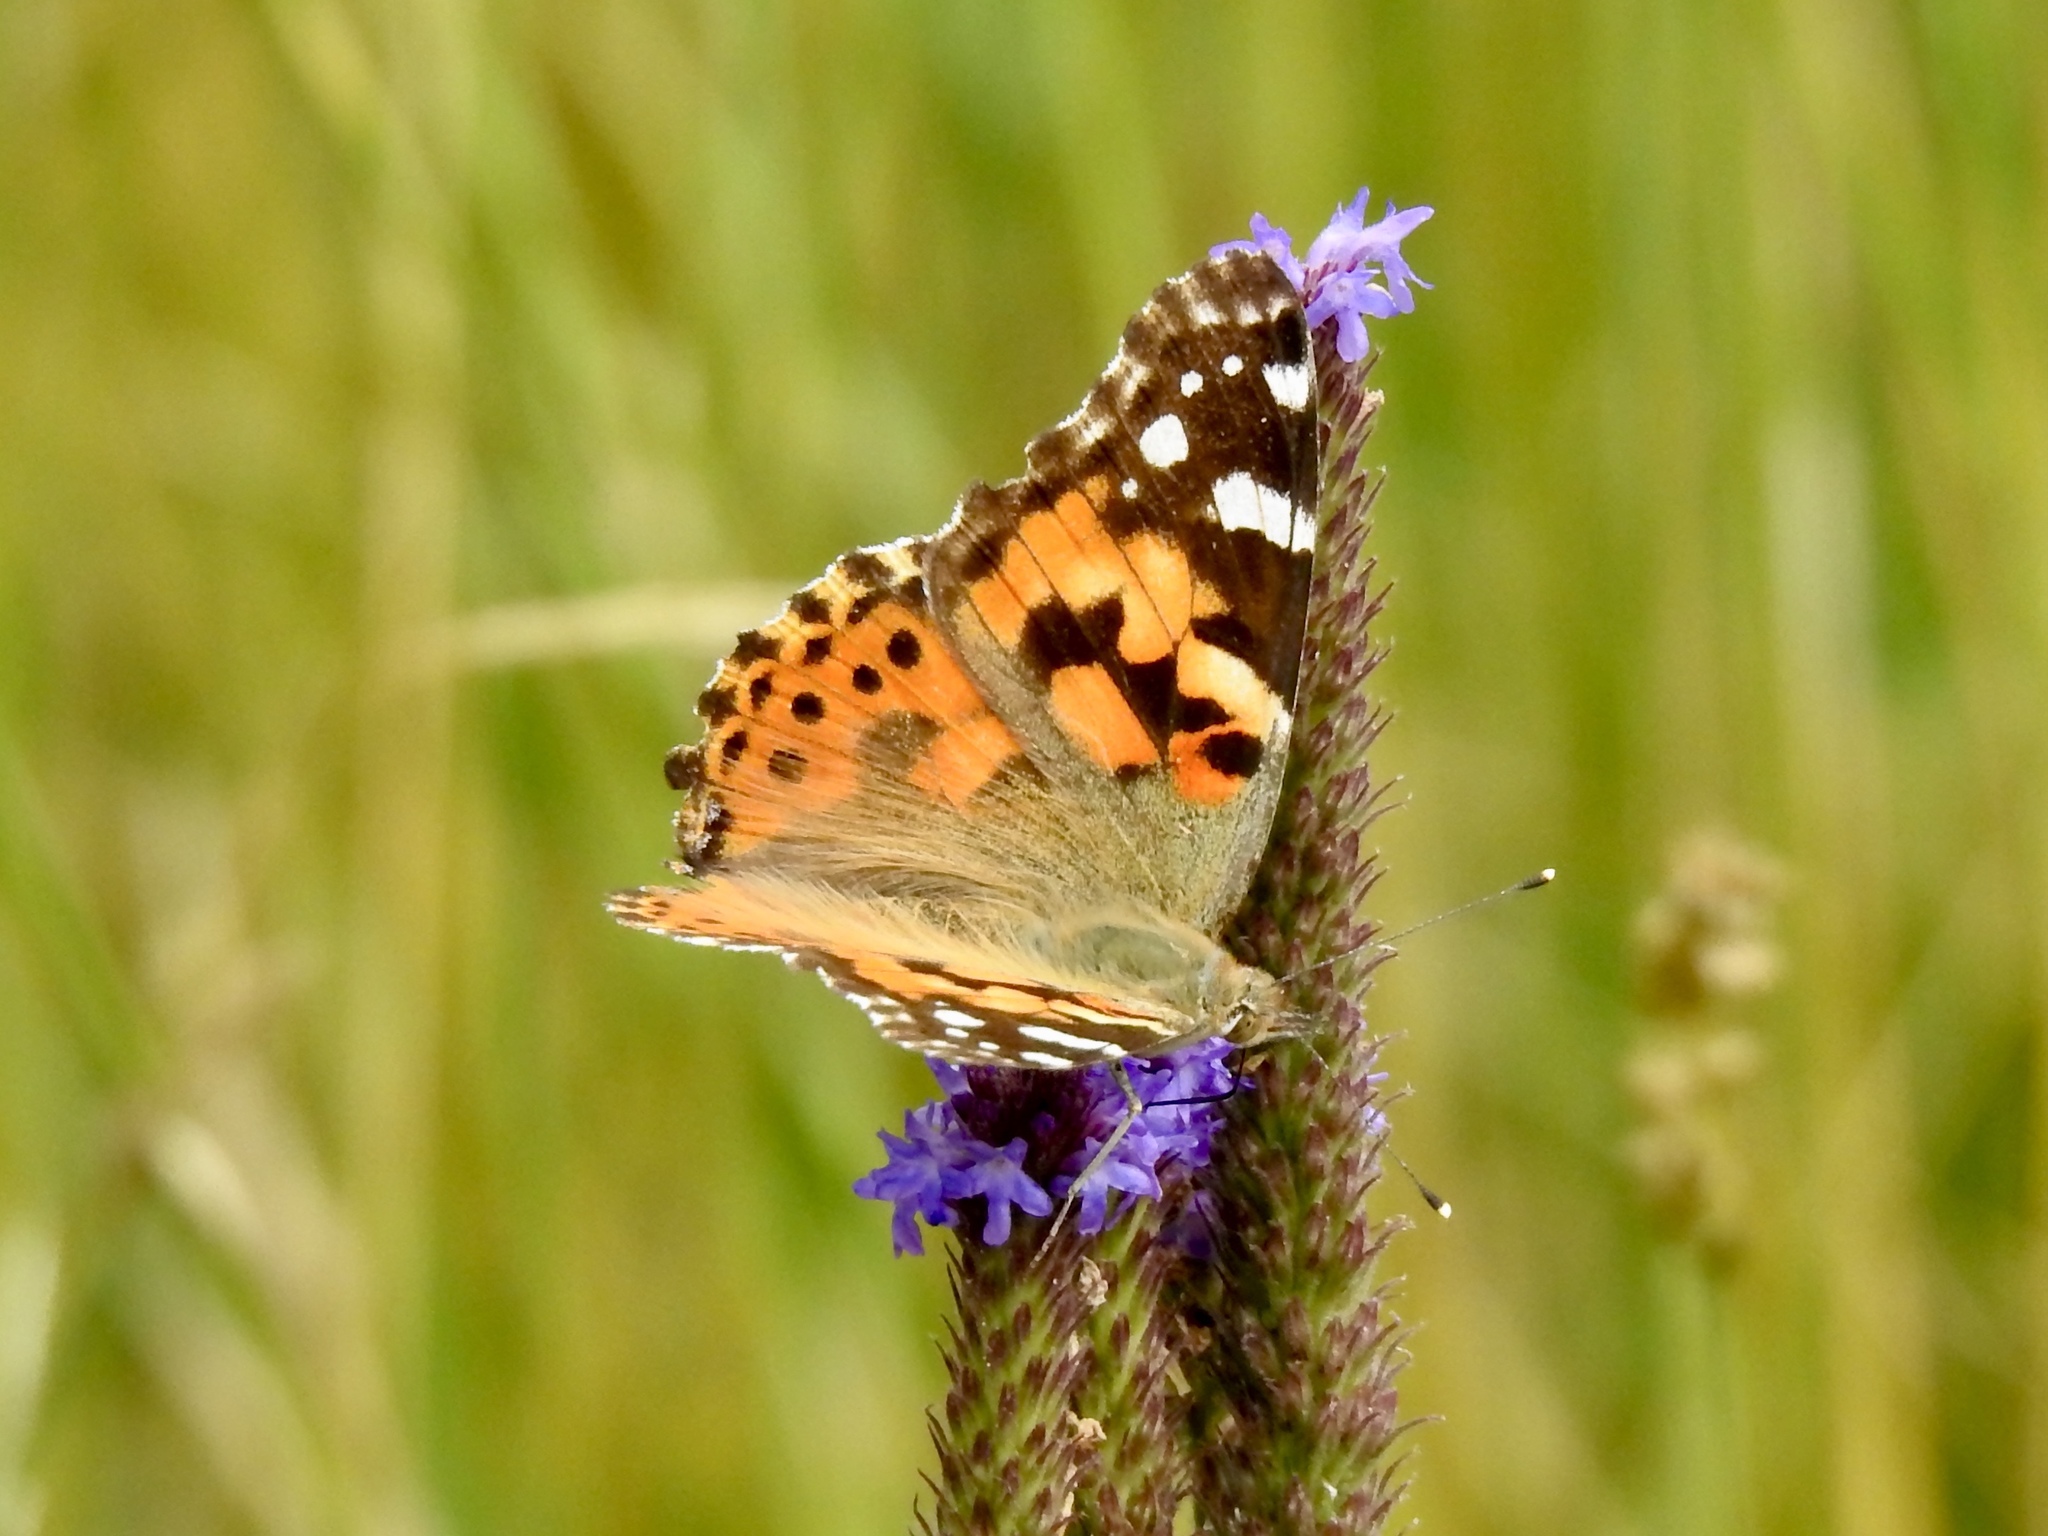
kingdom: Animalia
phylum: Arthropoda
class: Insecta
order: Lepidoptera
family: Nymphalidae
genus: Vanessa
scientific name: Vanessa cardui
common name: Painted lady
